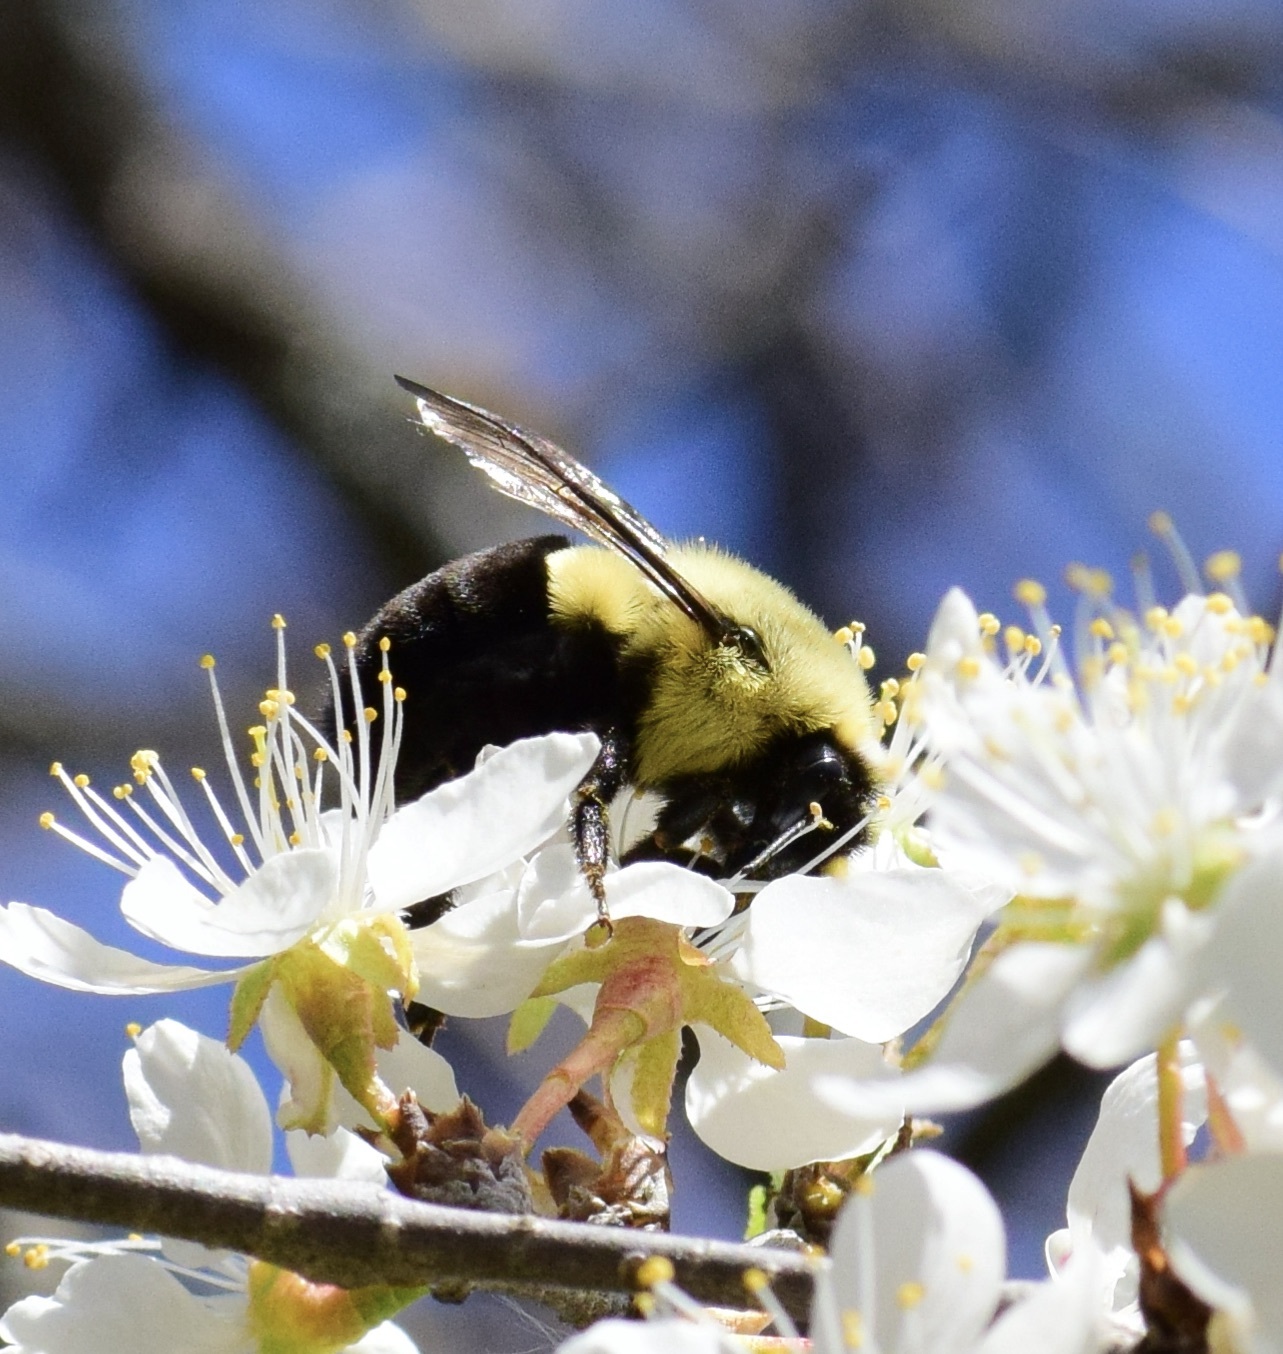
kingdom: Animalia
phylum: Arthropoda
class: Insecta
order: Hymenoptera
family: Apidae
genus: Bombus
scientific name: Bombus impatiens
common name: Common eastern bumble bee
